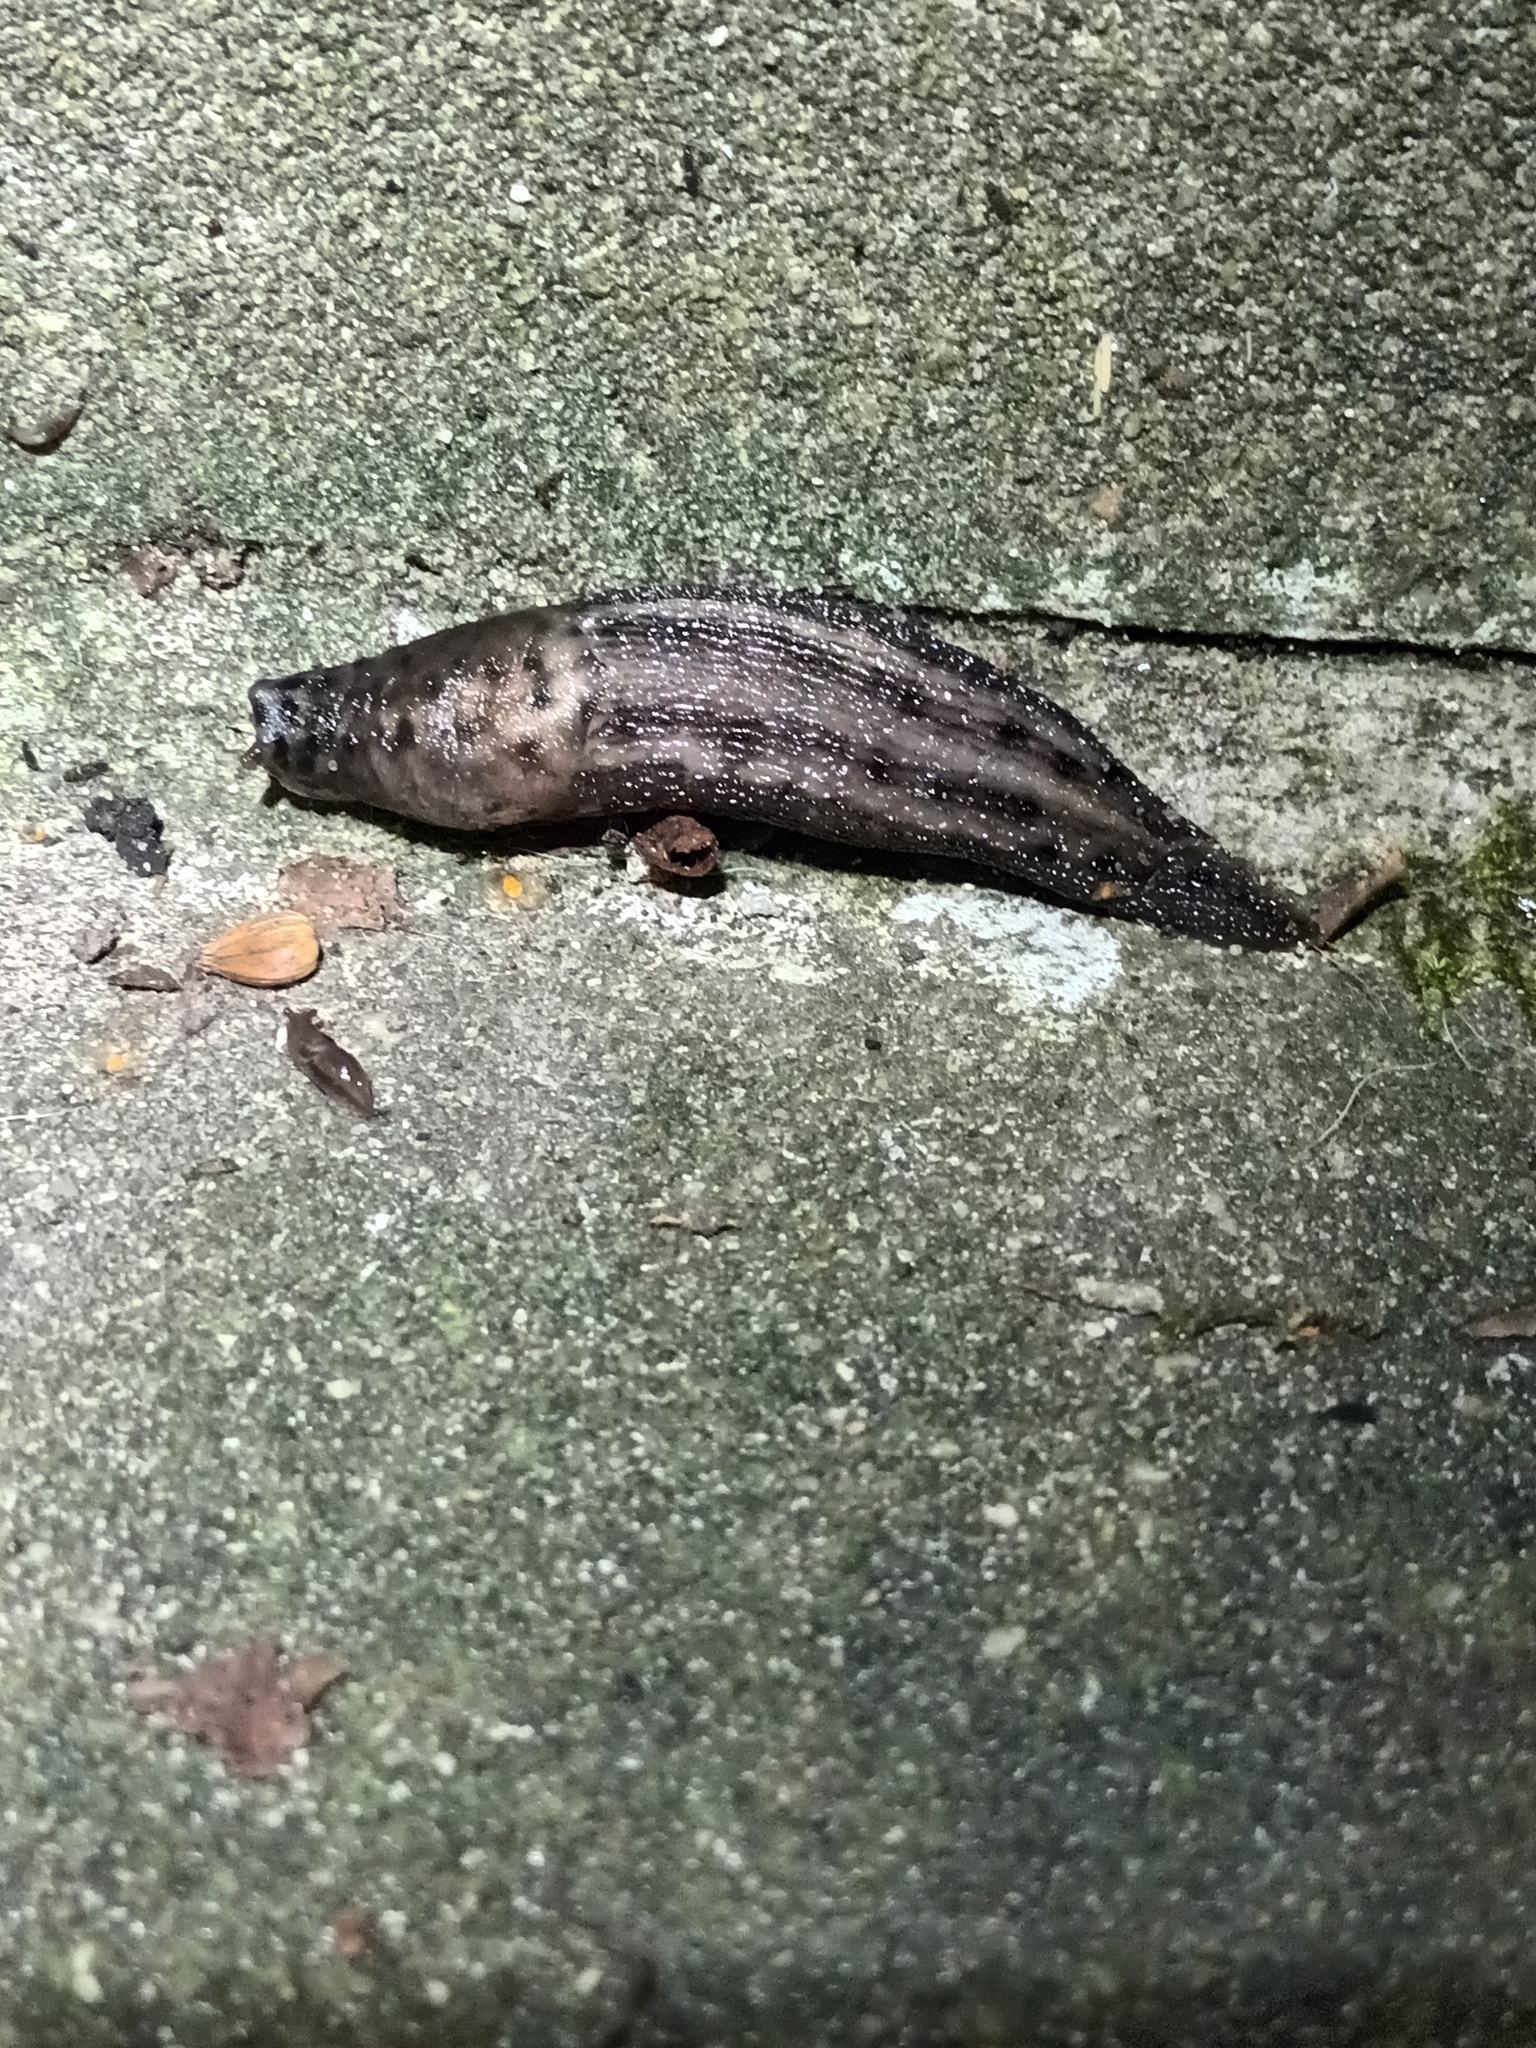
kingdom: Animalia
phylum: Mollusca
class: Gastropoda
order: Stylommatophora
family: Limacidae
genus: Limax
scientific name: Limax maximus
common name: Great grey slug
